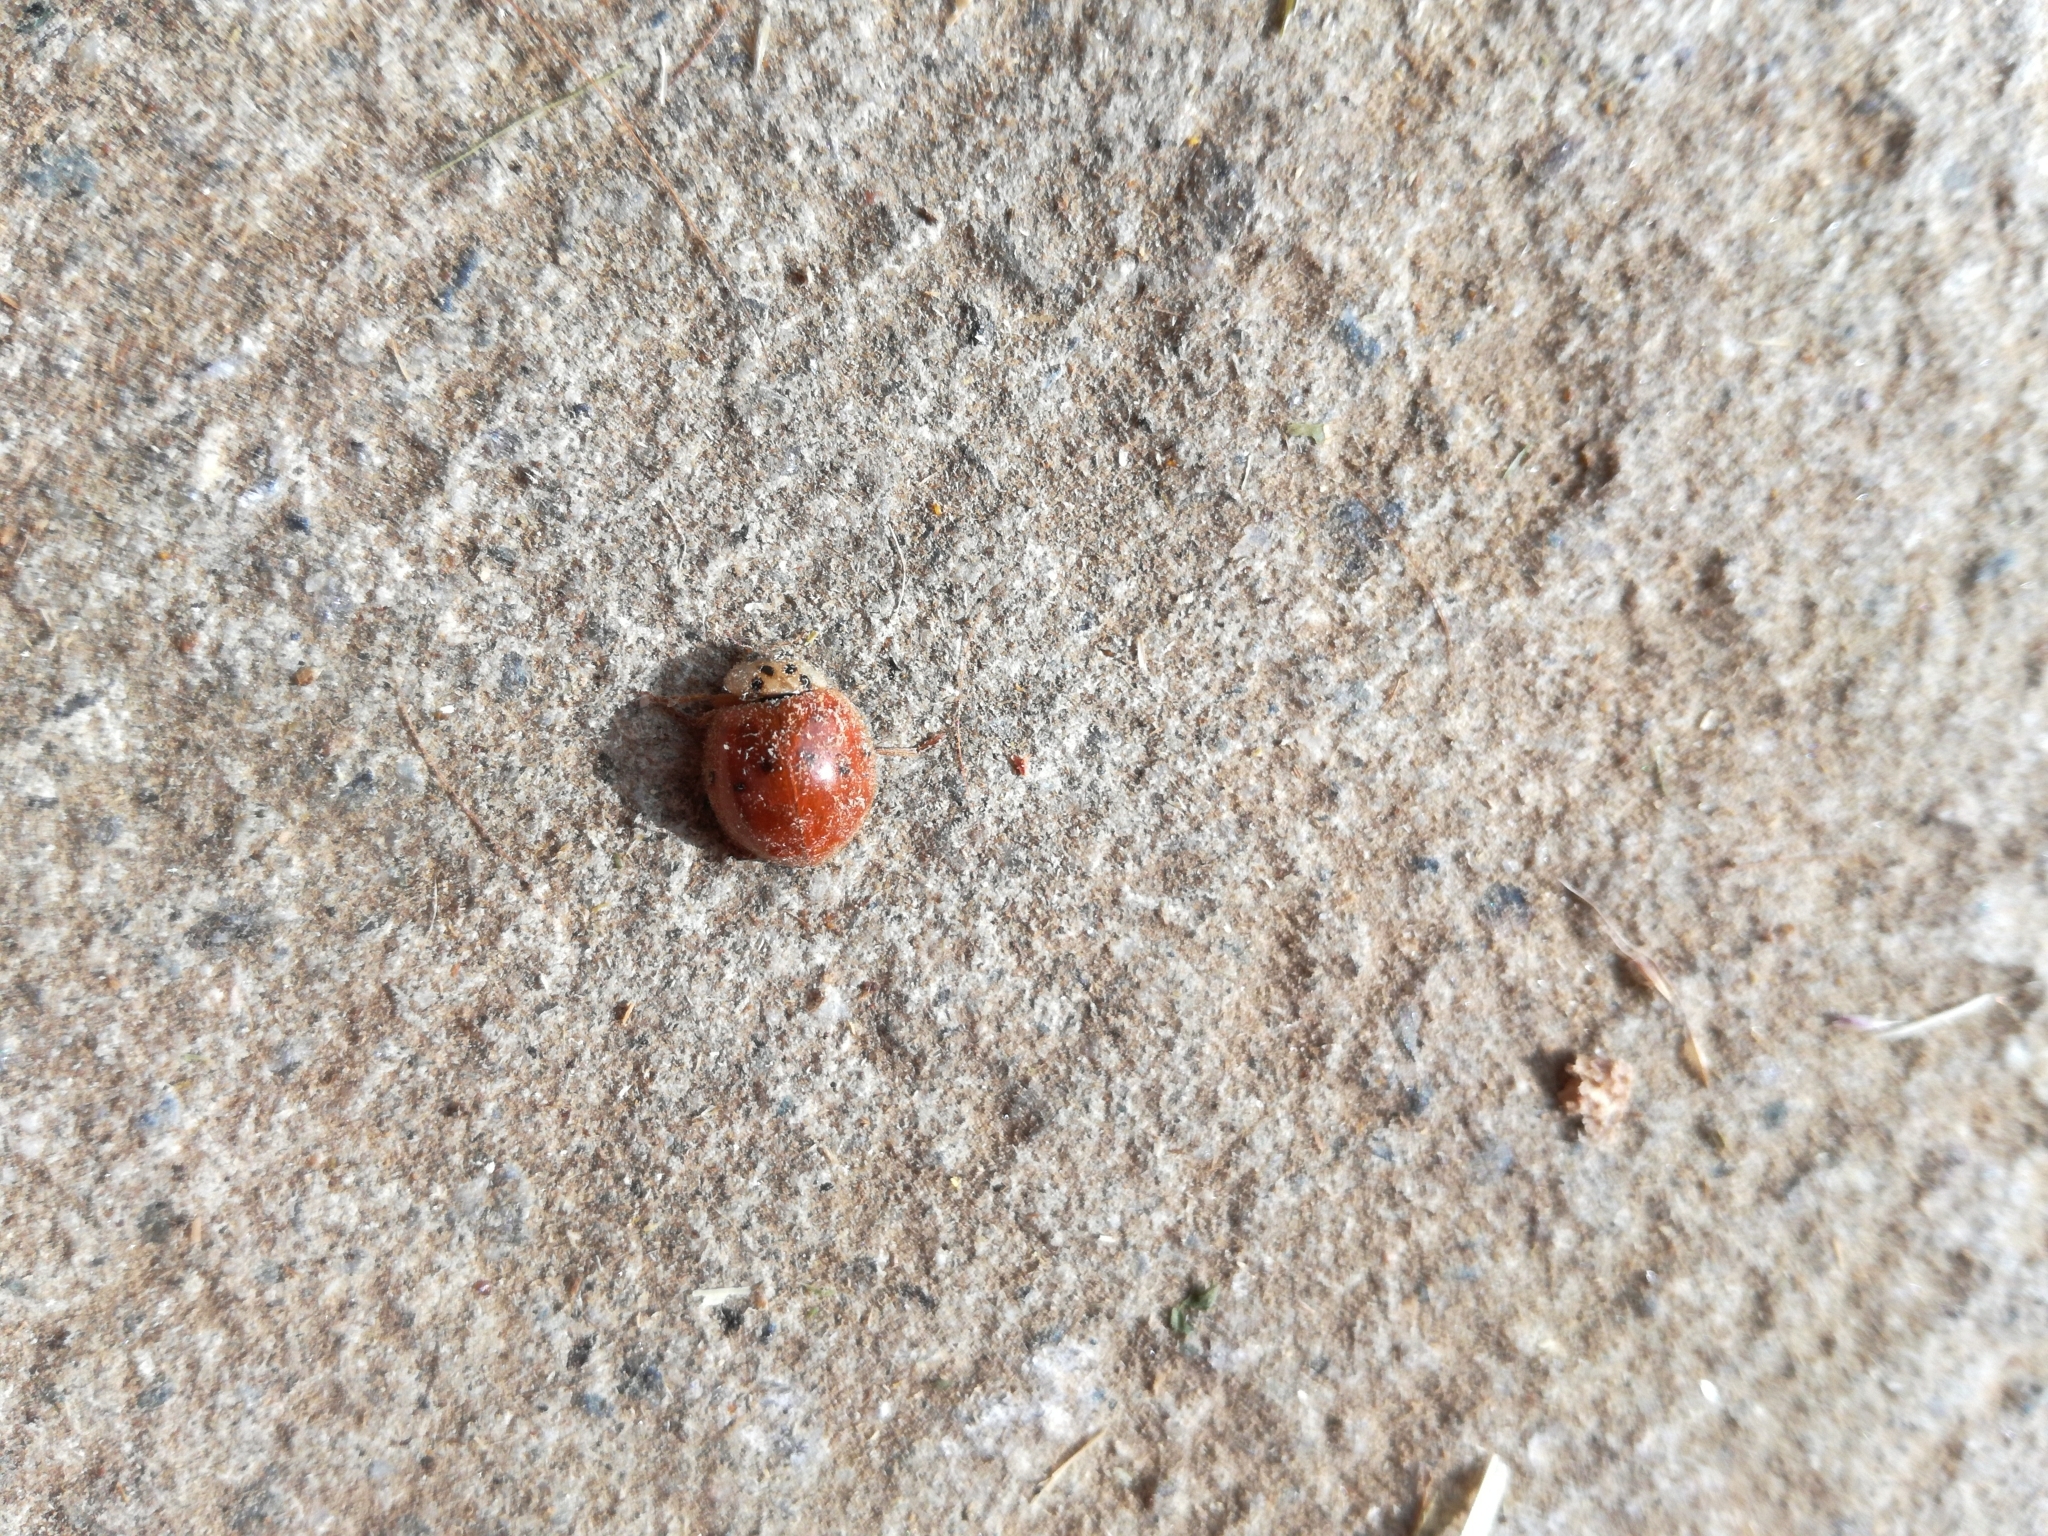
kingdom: Animalia
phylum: Arthropoda
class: Insecta
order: Coleoptera
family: Coccinellidae
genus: Harmonia
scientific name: Harmonia axyridis
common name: Harlequin ladybird
